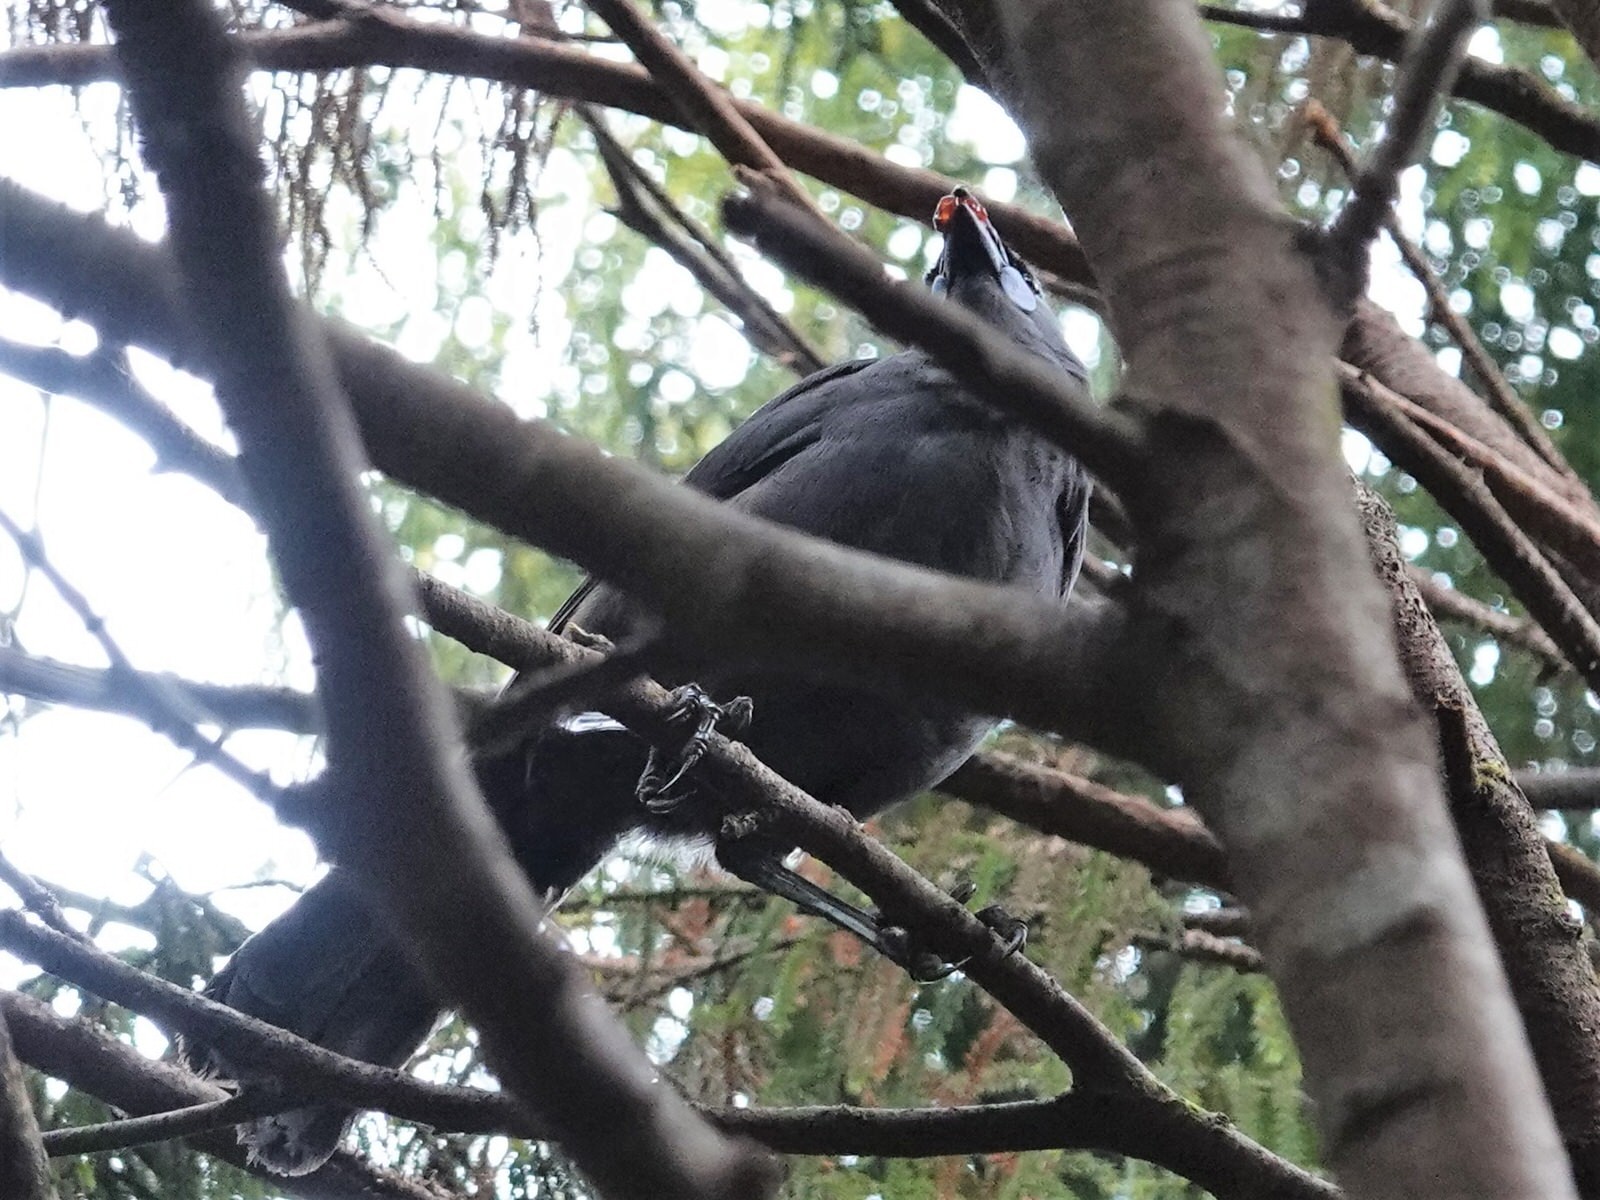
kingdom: Animalia
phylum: Chordata
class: Aves
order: Passeriformes
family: Callaeatidae
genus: Callaeas
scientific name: Callaeas cinereus
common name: South island kokako
